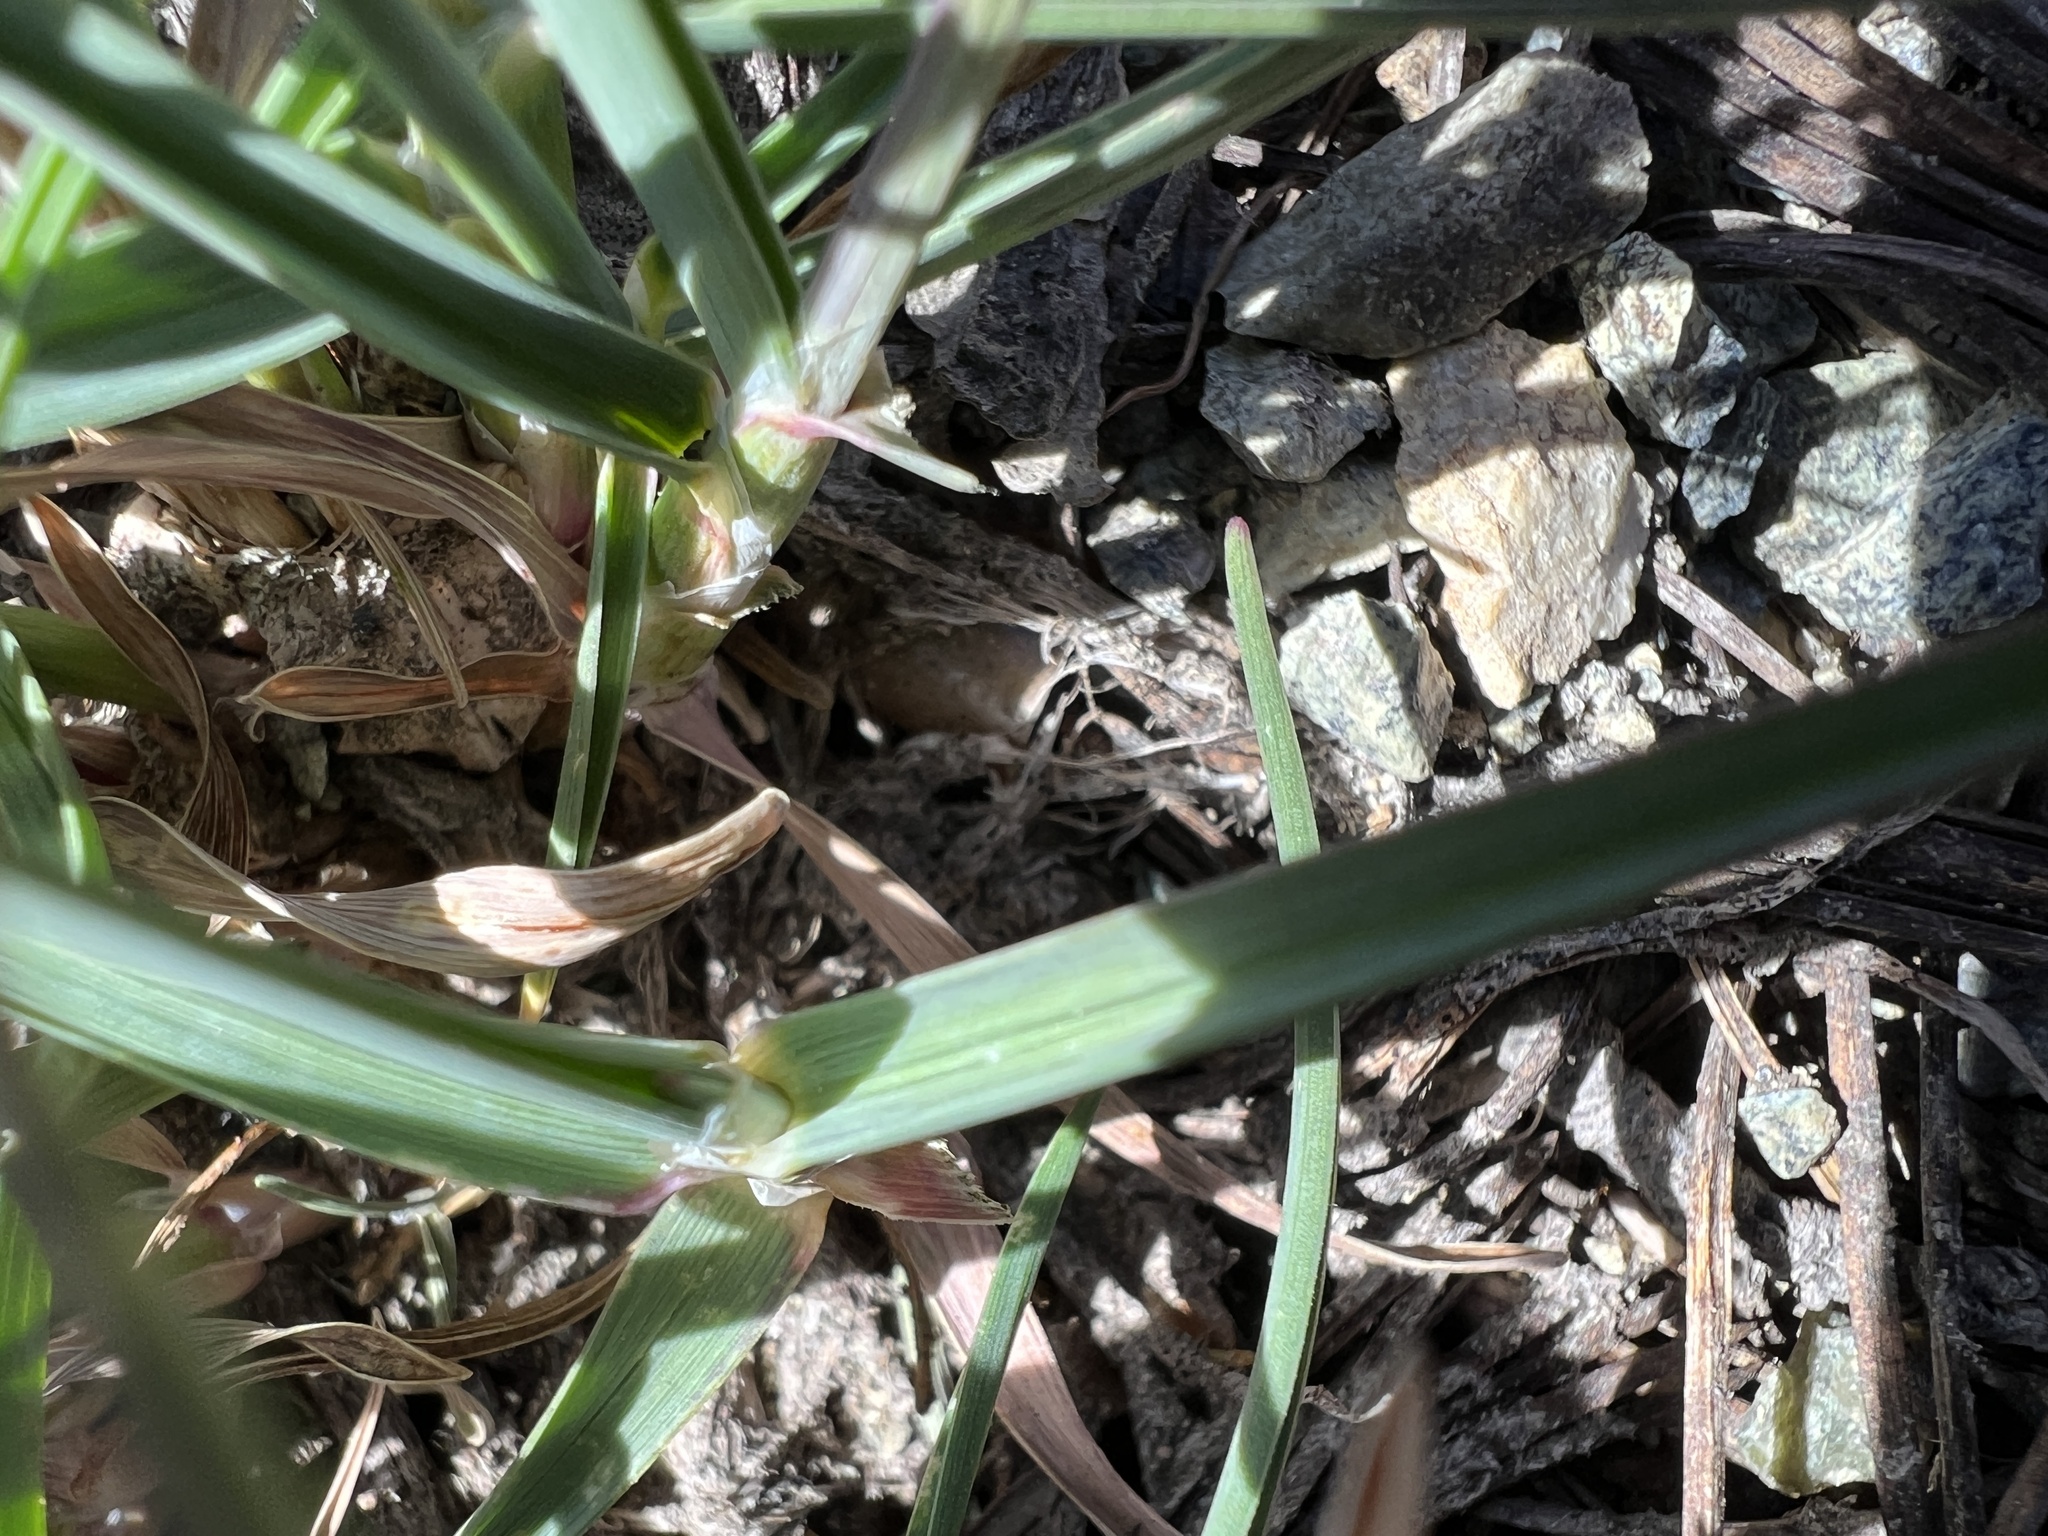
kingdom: Plantae
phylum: Tracheophyta
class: Liliopsida
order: Poales
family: Poaceae
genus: Poa
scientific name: Poa curtifolia
